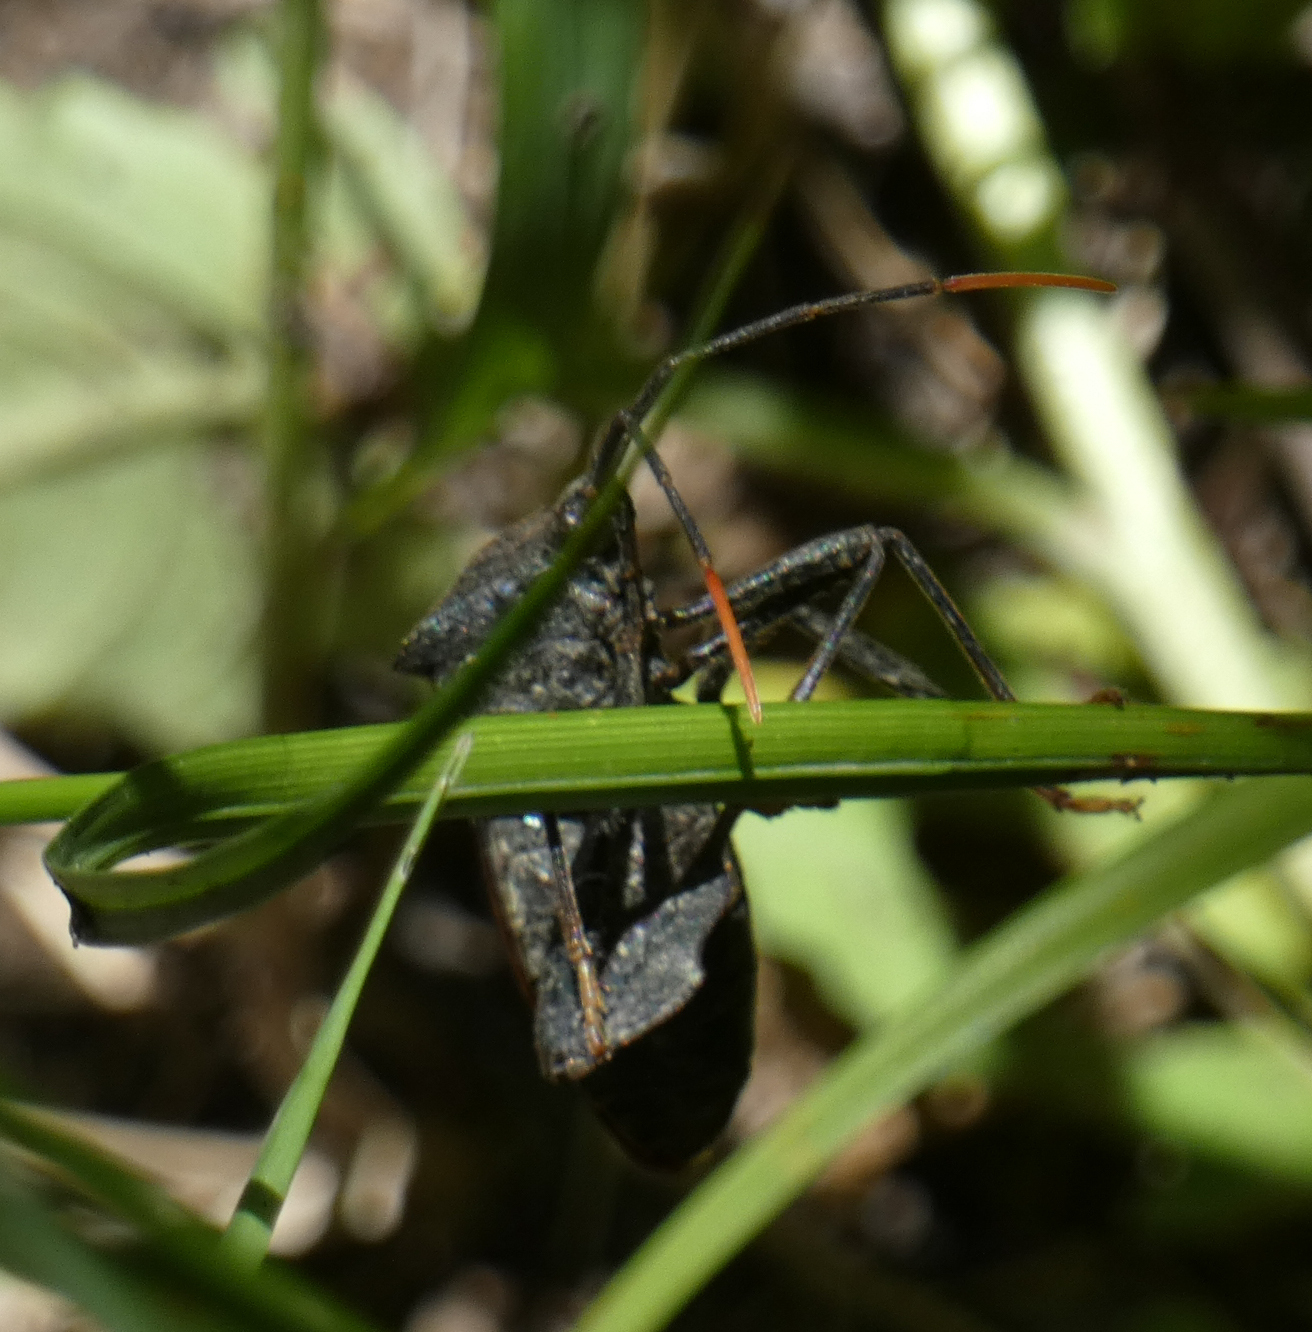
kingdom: Animalia
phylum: Arthropoda
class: Insecta
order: Hemiptera
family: Coreidae
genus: Acanthocephala
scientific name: Acanthocephala terminalis
